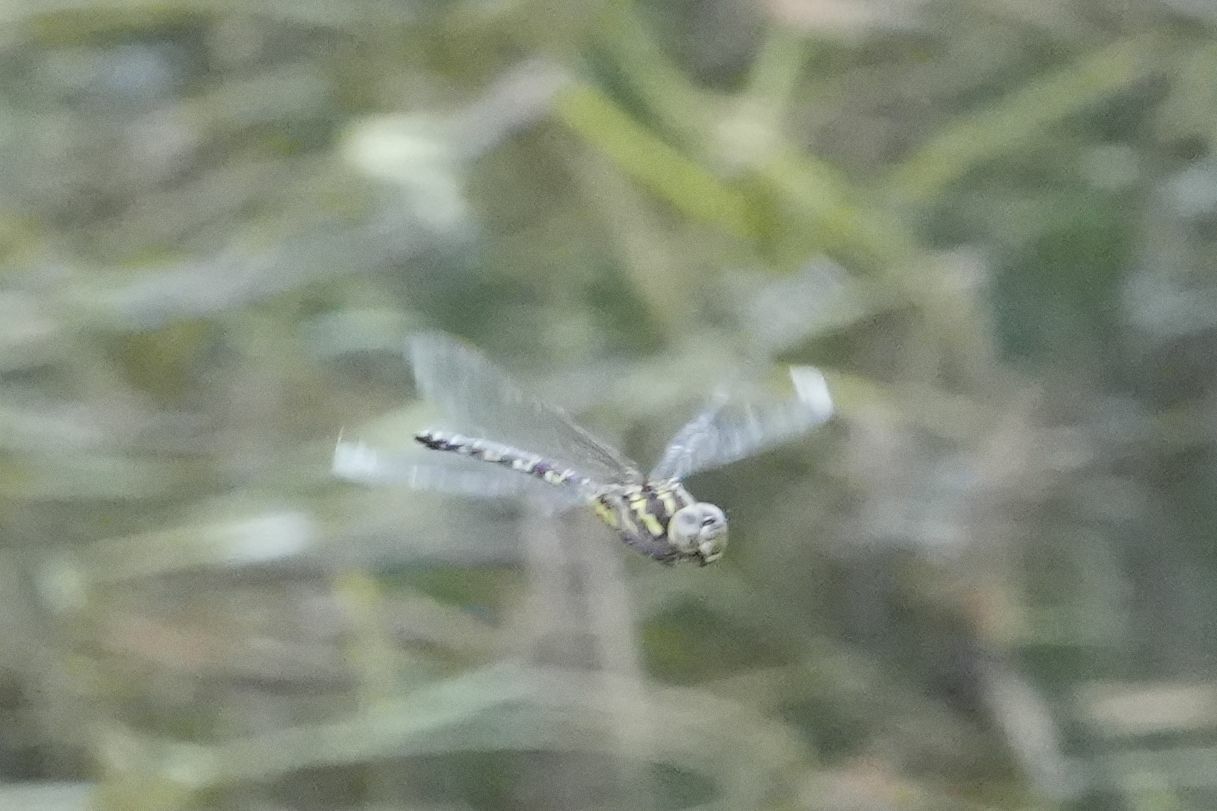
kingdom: Animalia
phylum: Arthropoda
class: Insecta
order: Odonata
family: Aeshnidae
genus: Aeshna
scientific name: Aeshna verticalis
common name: Green-striped darner
